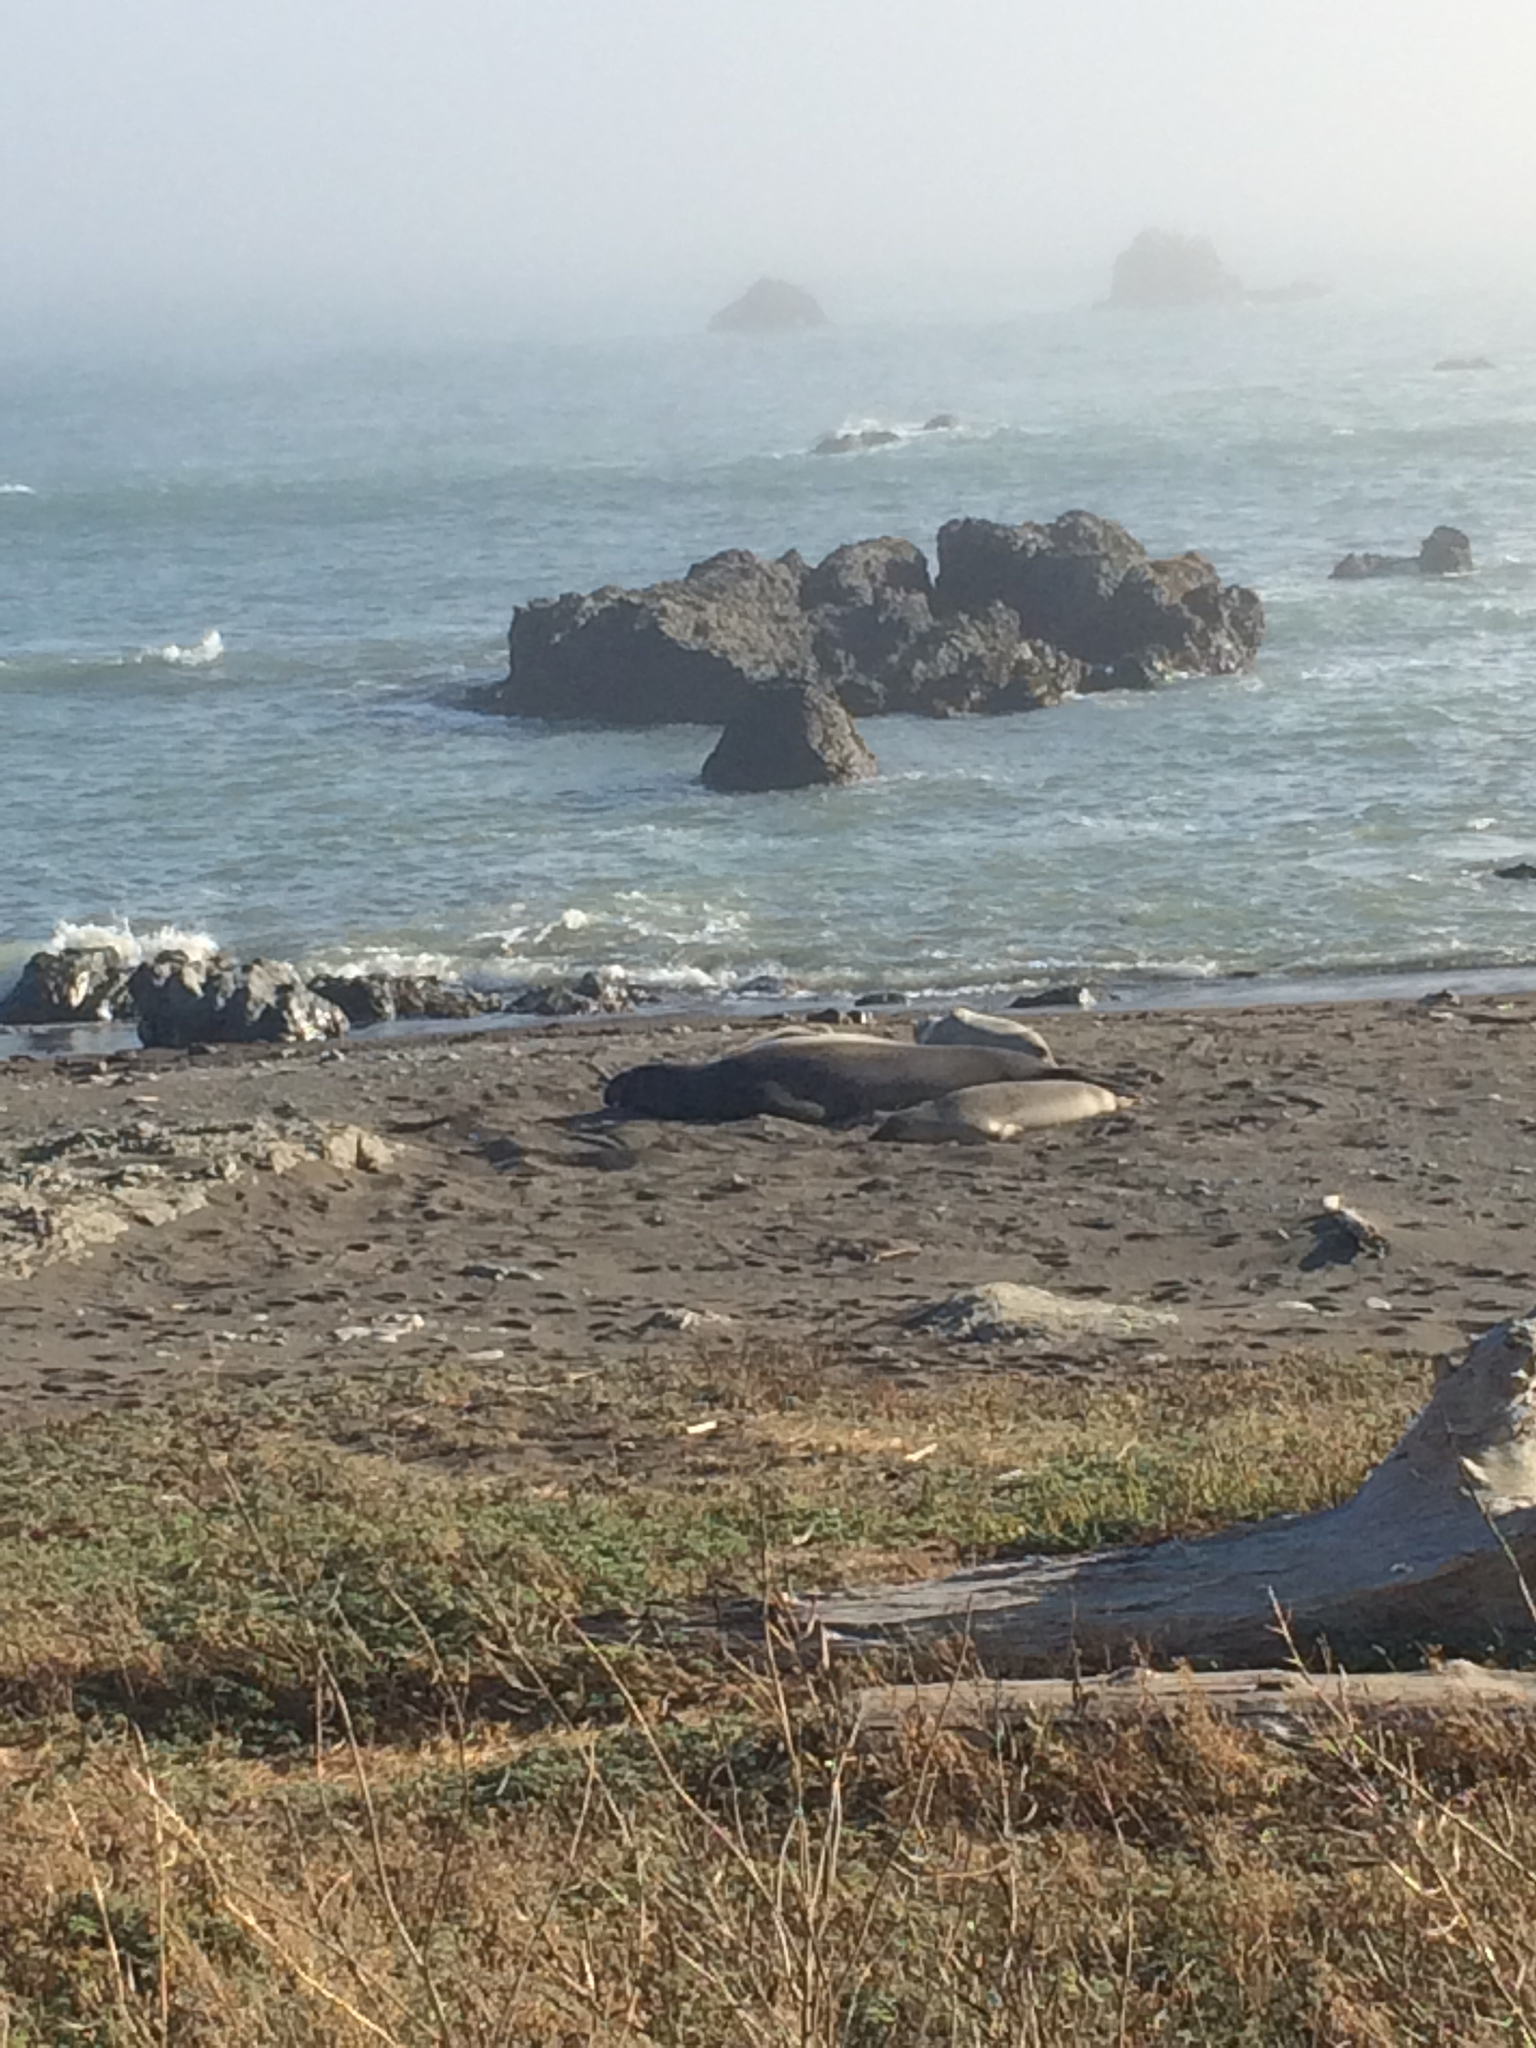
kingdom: Animalia
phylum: Chordata
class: Mammalia
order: Carnivora
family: Phocidae
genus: Mirounga
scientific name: Mirounga angustirostris
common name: Northern elephant seal
